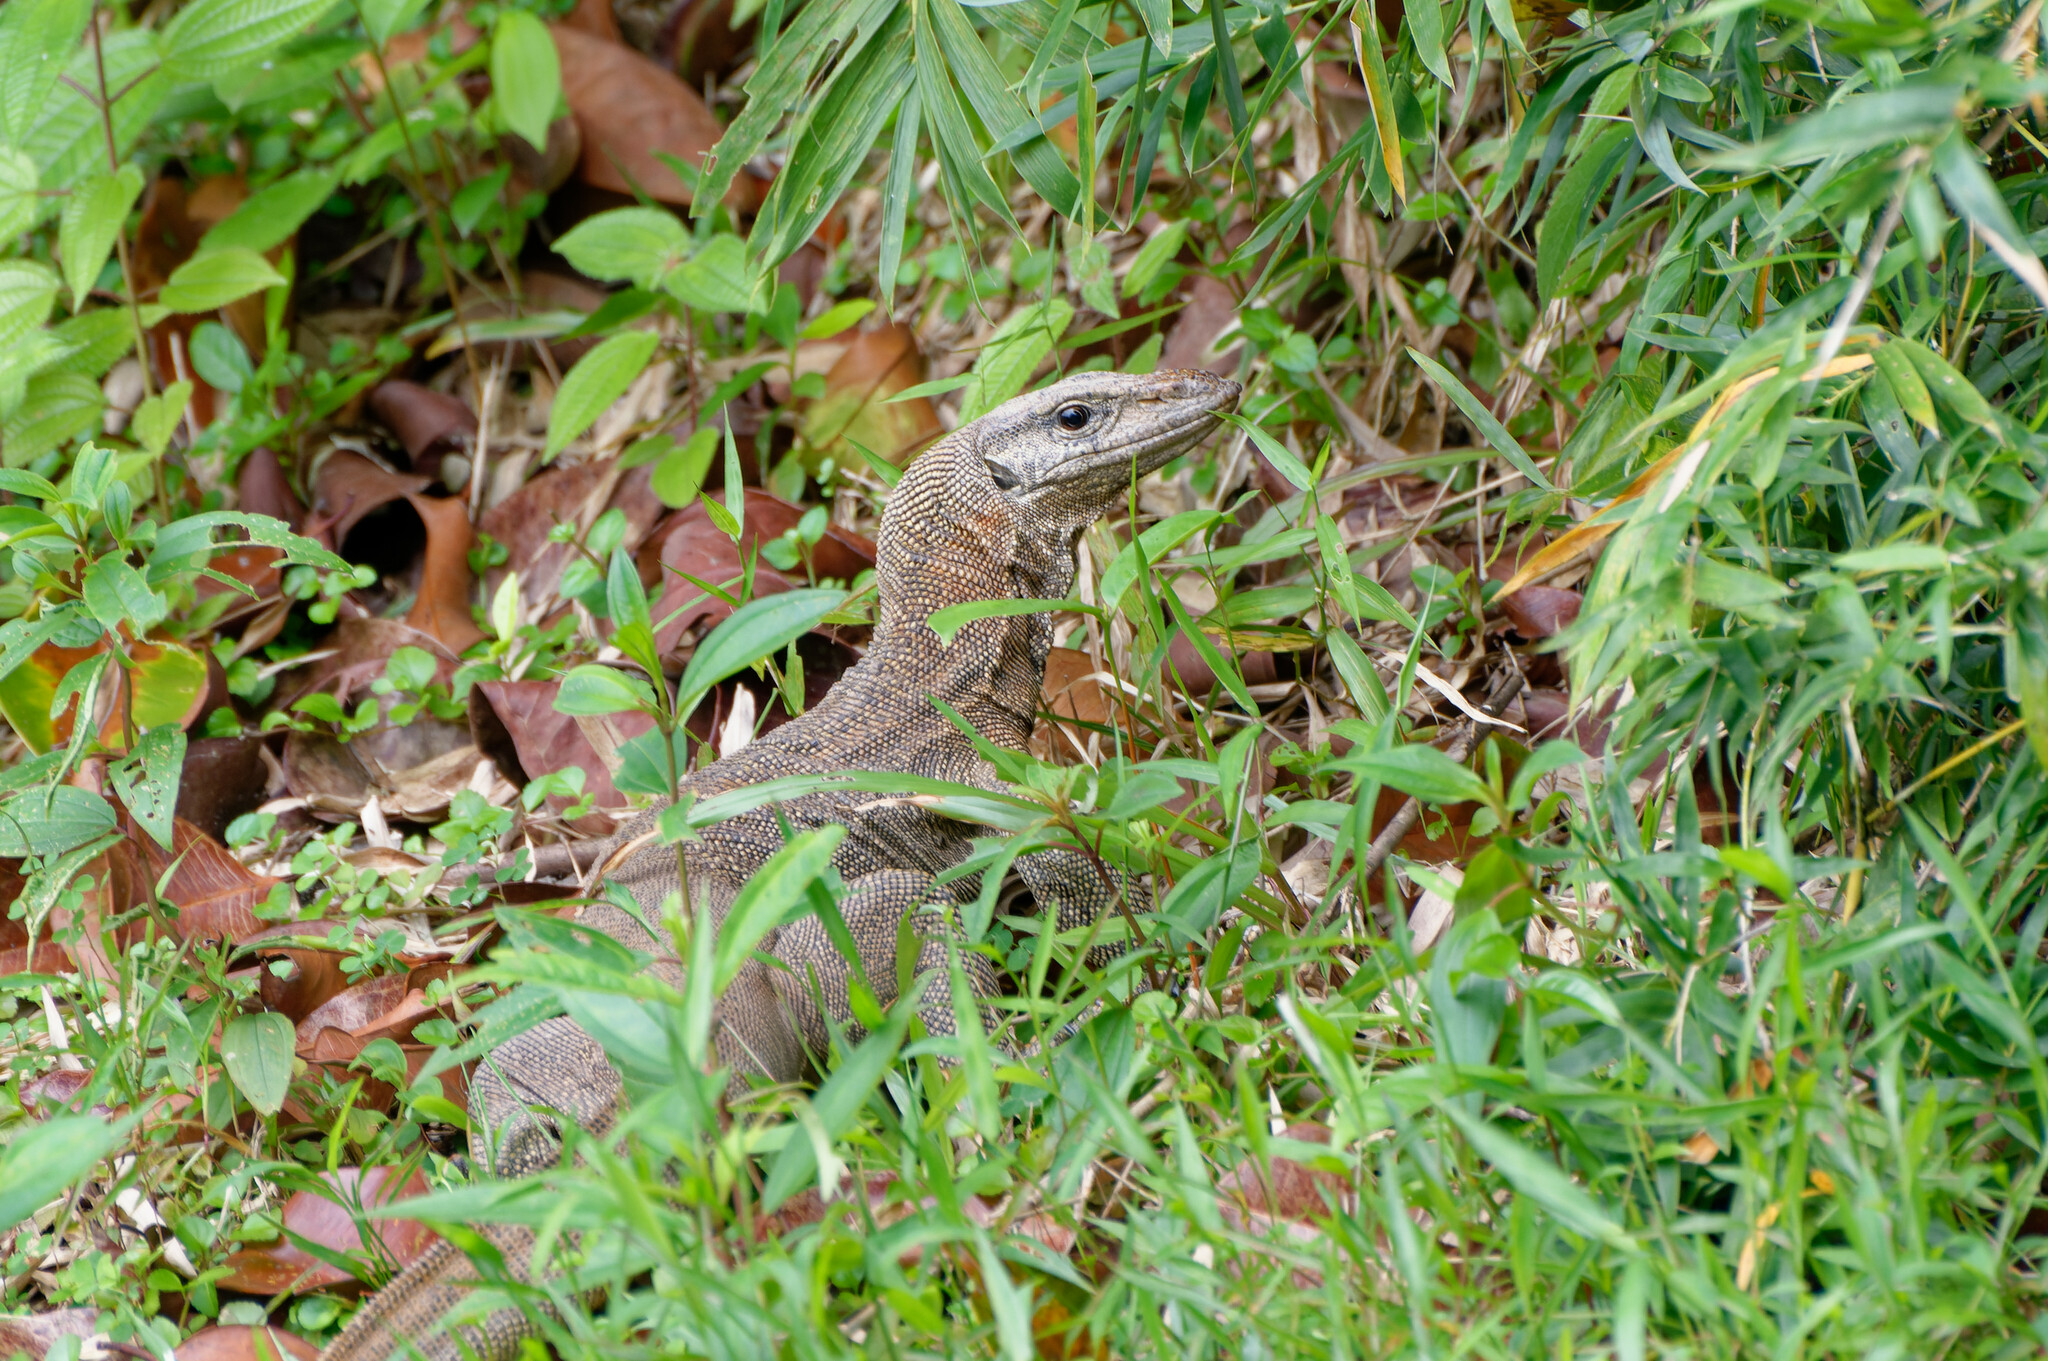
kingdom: Animalia
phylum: Chordata
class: Squamata
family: Varanidae
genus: Varanus
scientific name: Varanus nebulosus
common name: Clouded monitor
